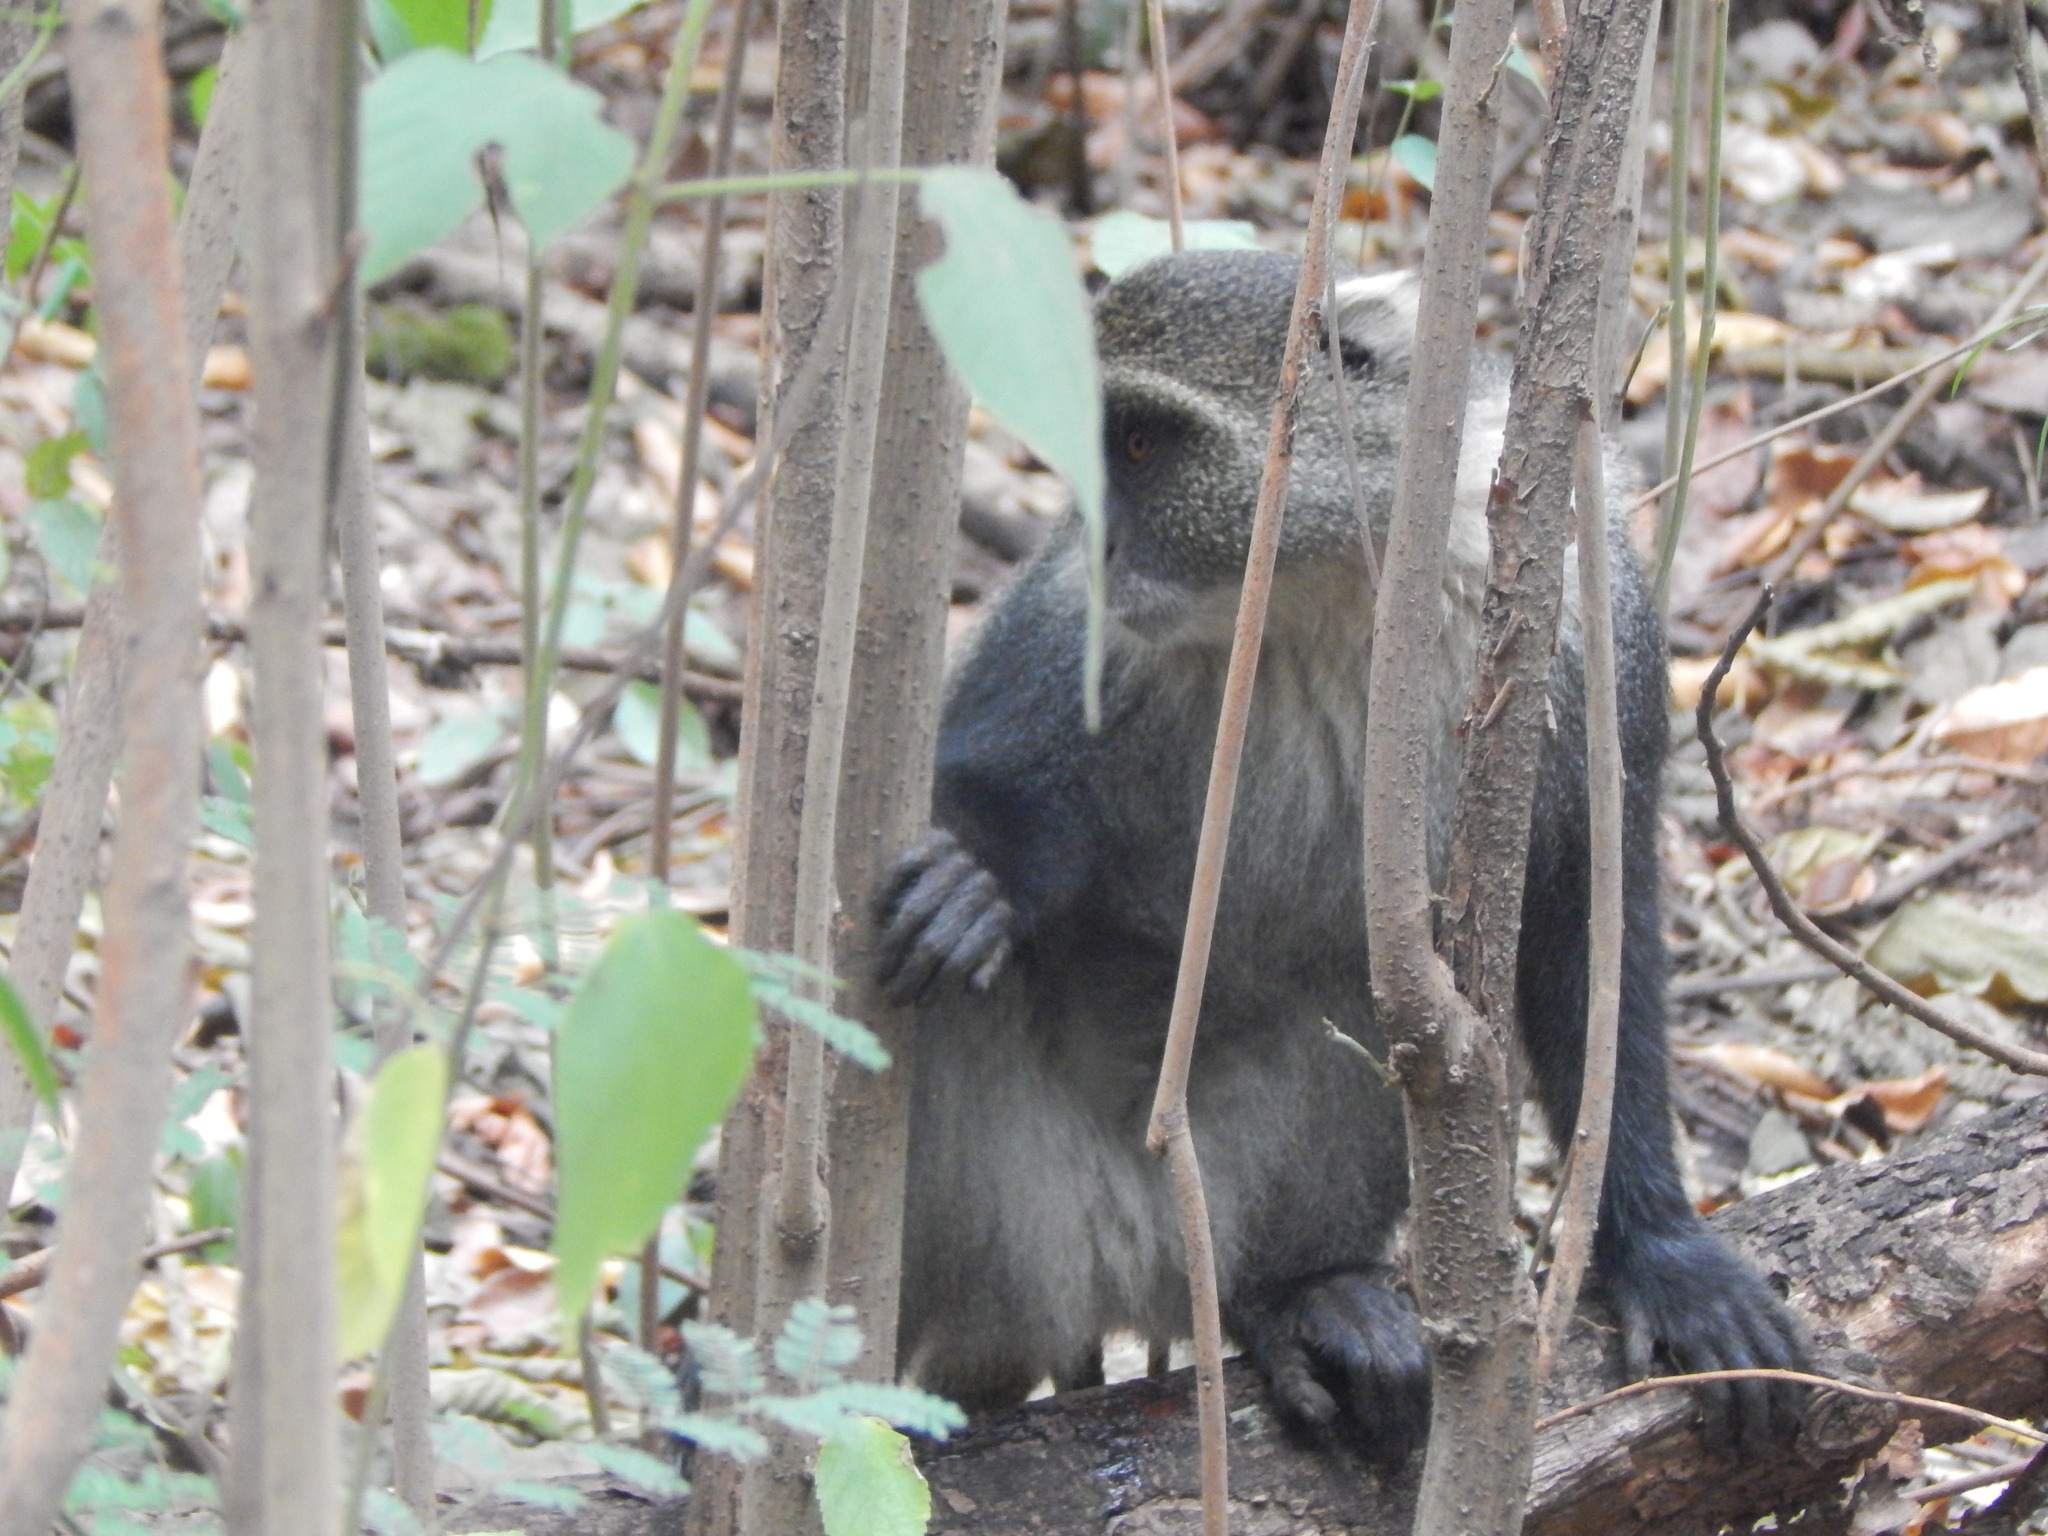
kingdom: Animalia
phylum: Chordata
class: Mammalia
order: Primates
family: Cercopithecidae
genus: Cercopithecus
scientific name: Cercopithecus mitis
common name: Blue monkey
